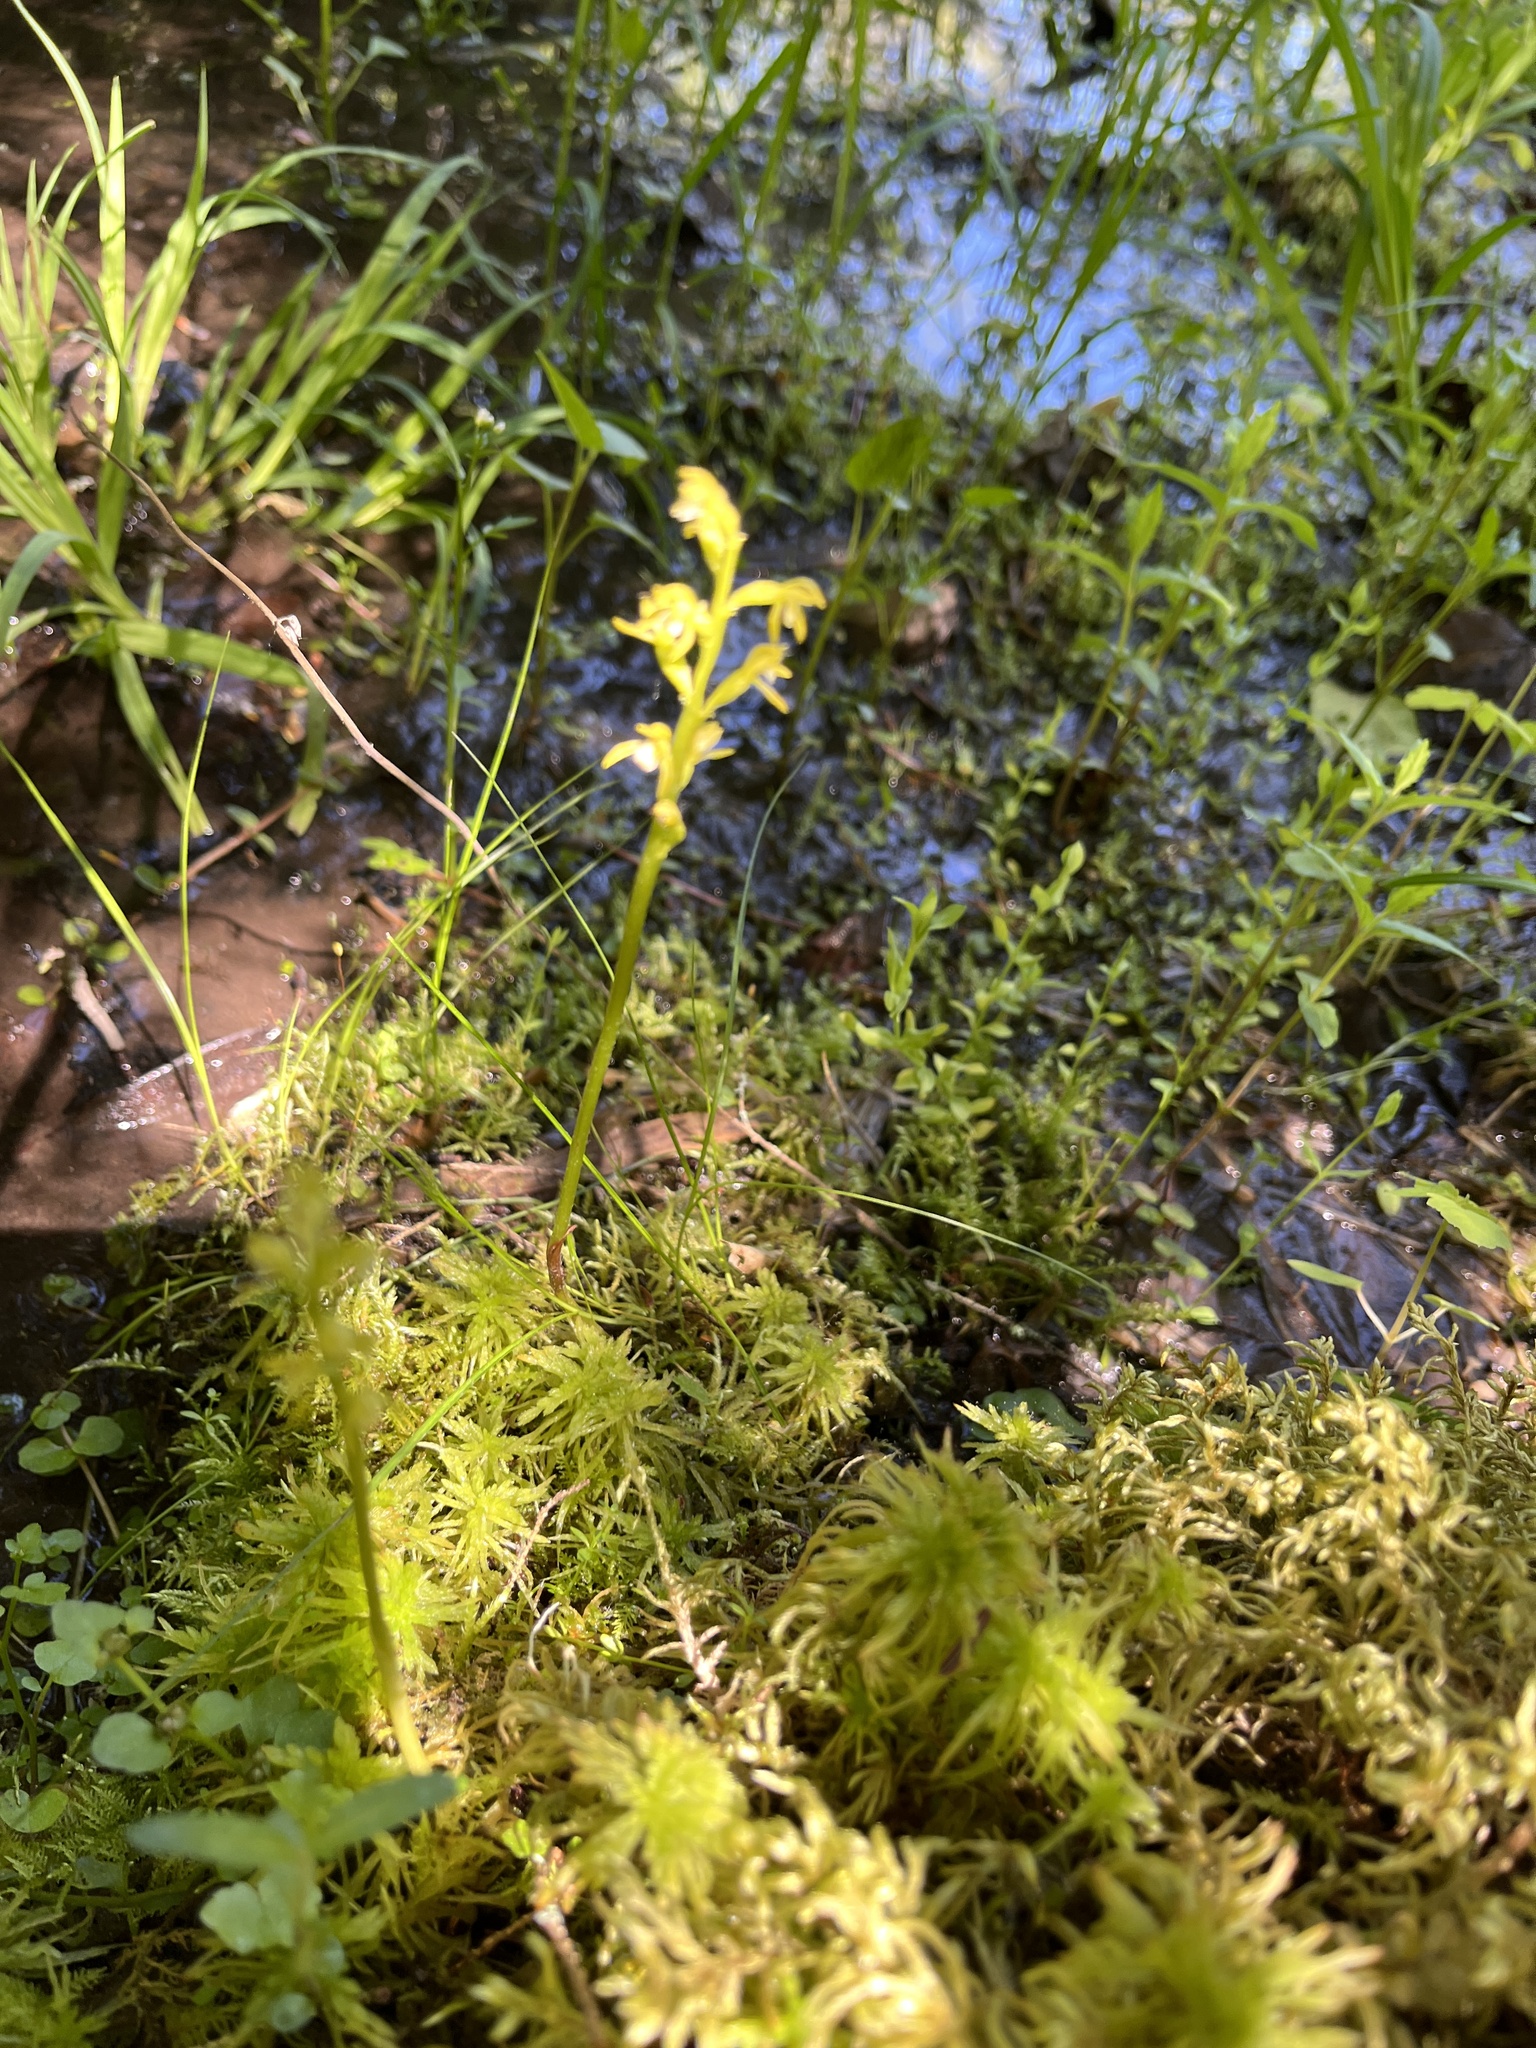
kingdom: Plantae
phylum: Tracheophyta
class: Liliopsida
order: Asparagales
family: Orchidaceae
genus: Corallorhiza
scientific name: Corallorhiza trifida
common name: Yellow coralroot
